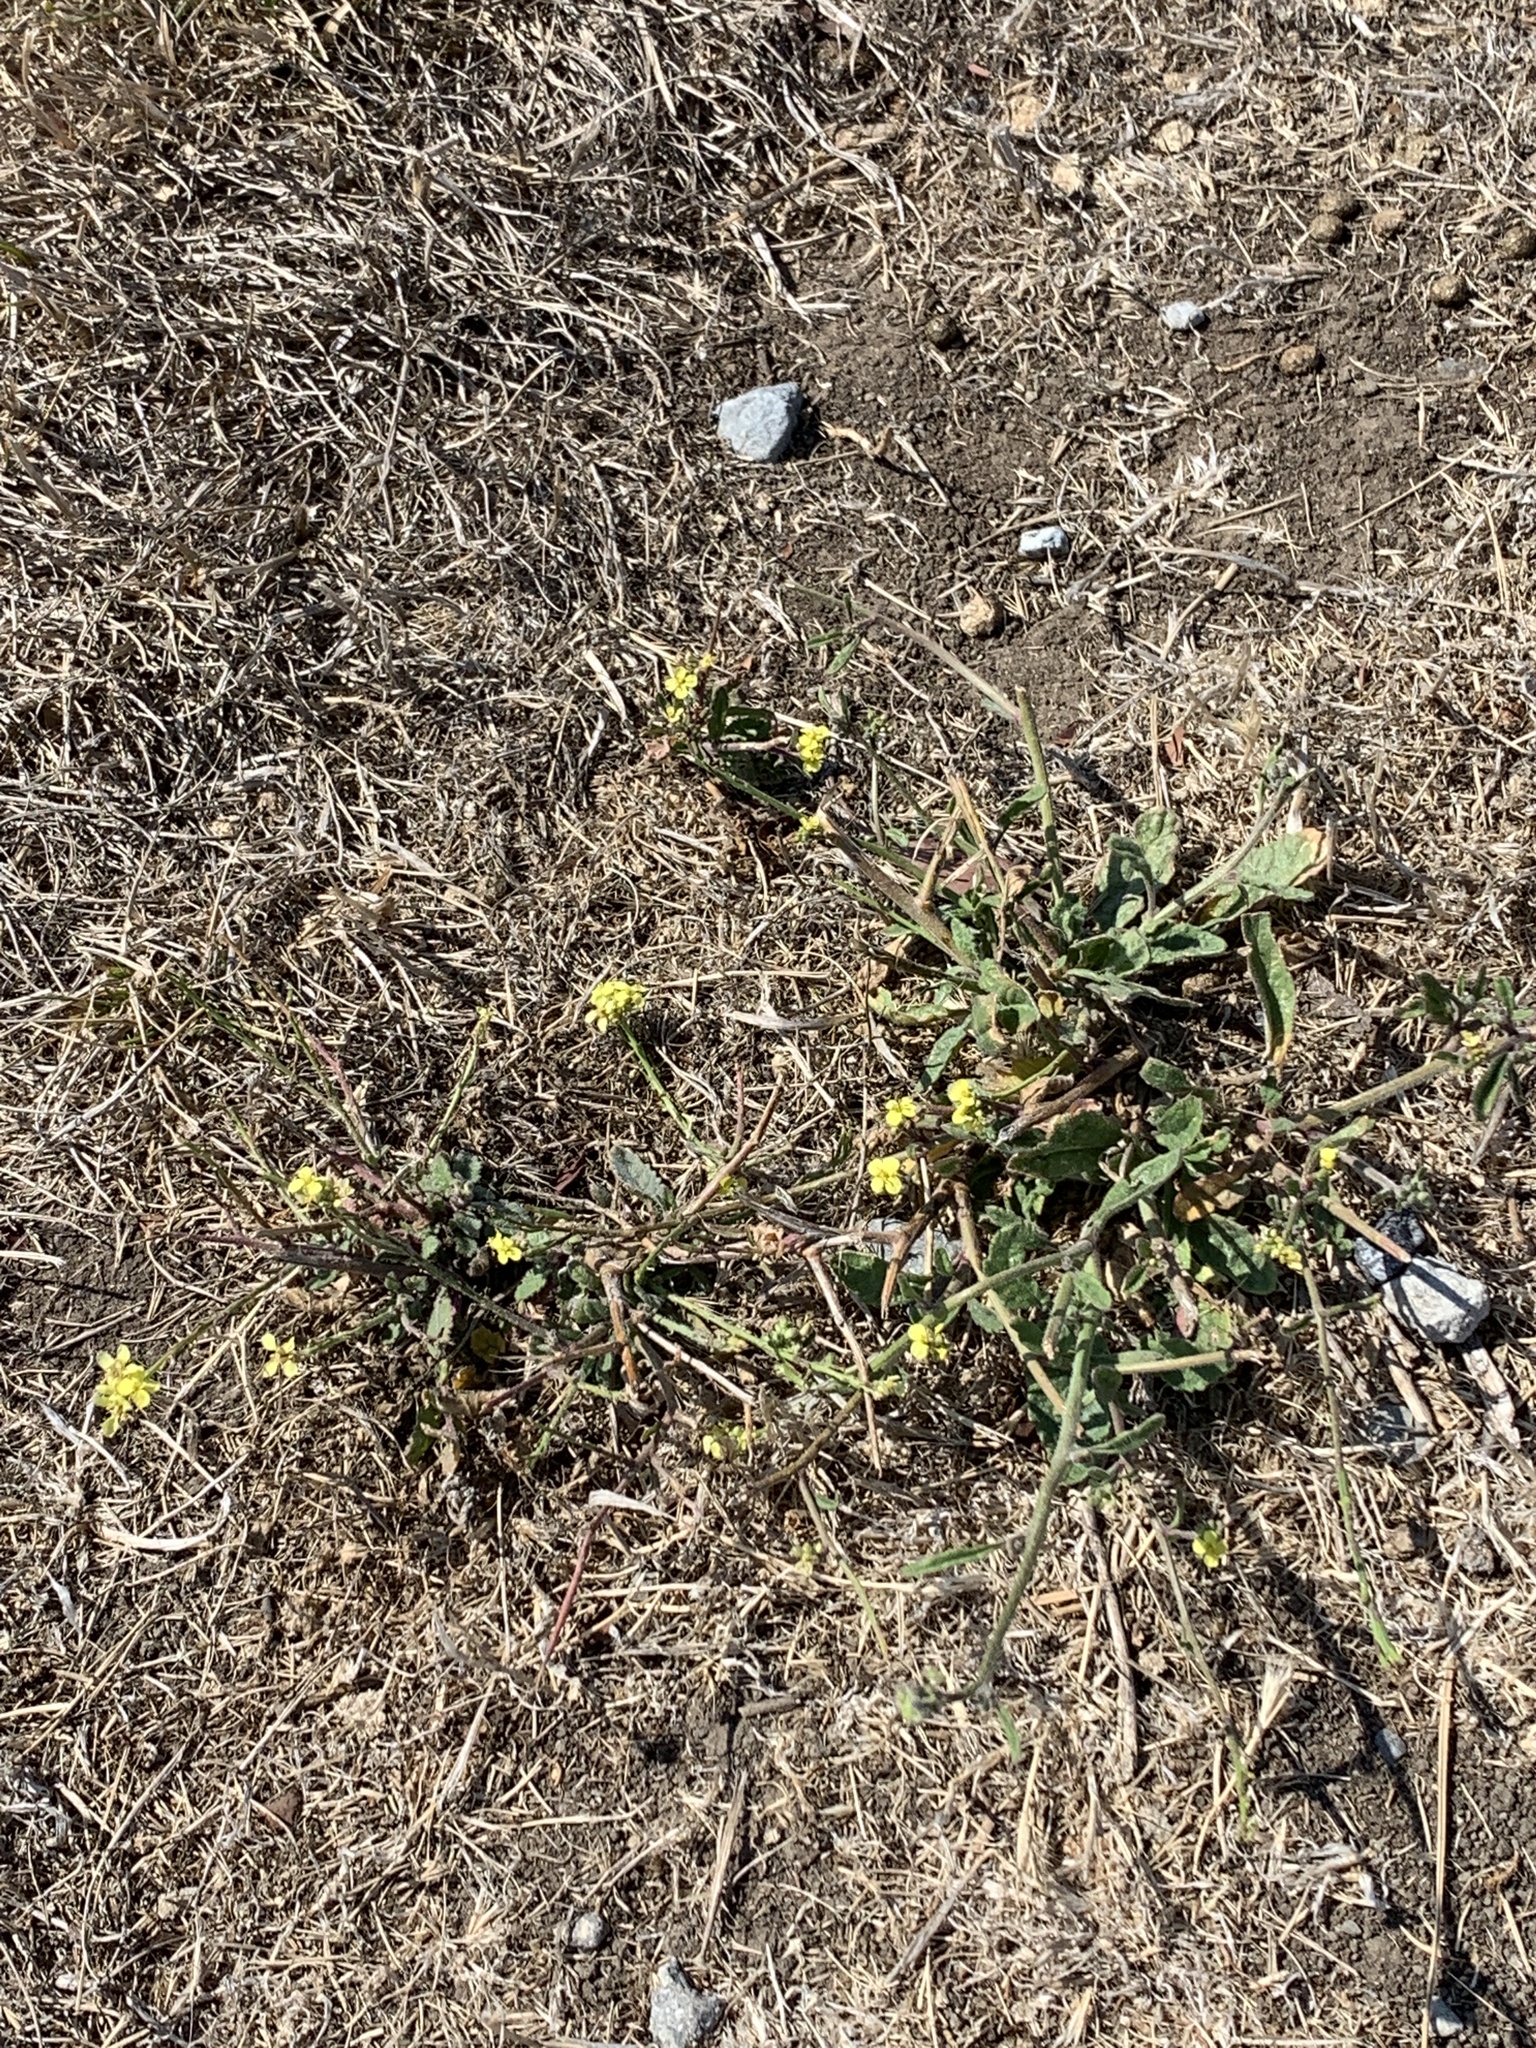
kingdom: Plantae
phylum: Tracheophyta
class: Magnoliopsida
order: Brassicales
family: Brassicaceae
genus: Hirschfeldia
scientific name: Hirschfeldia incana
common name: Hoary mustard
